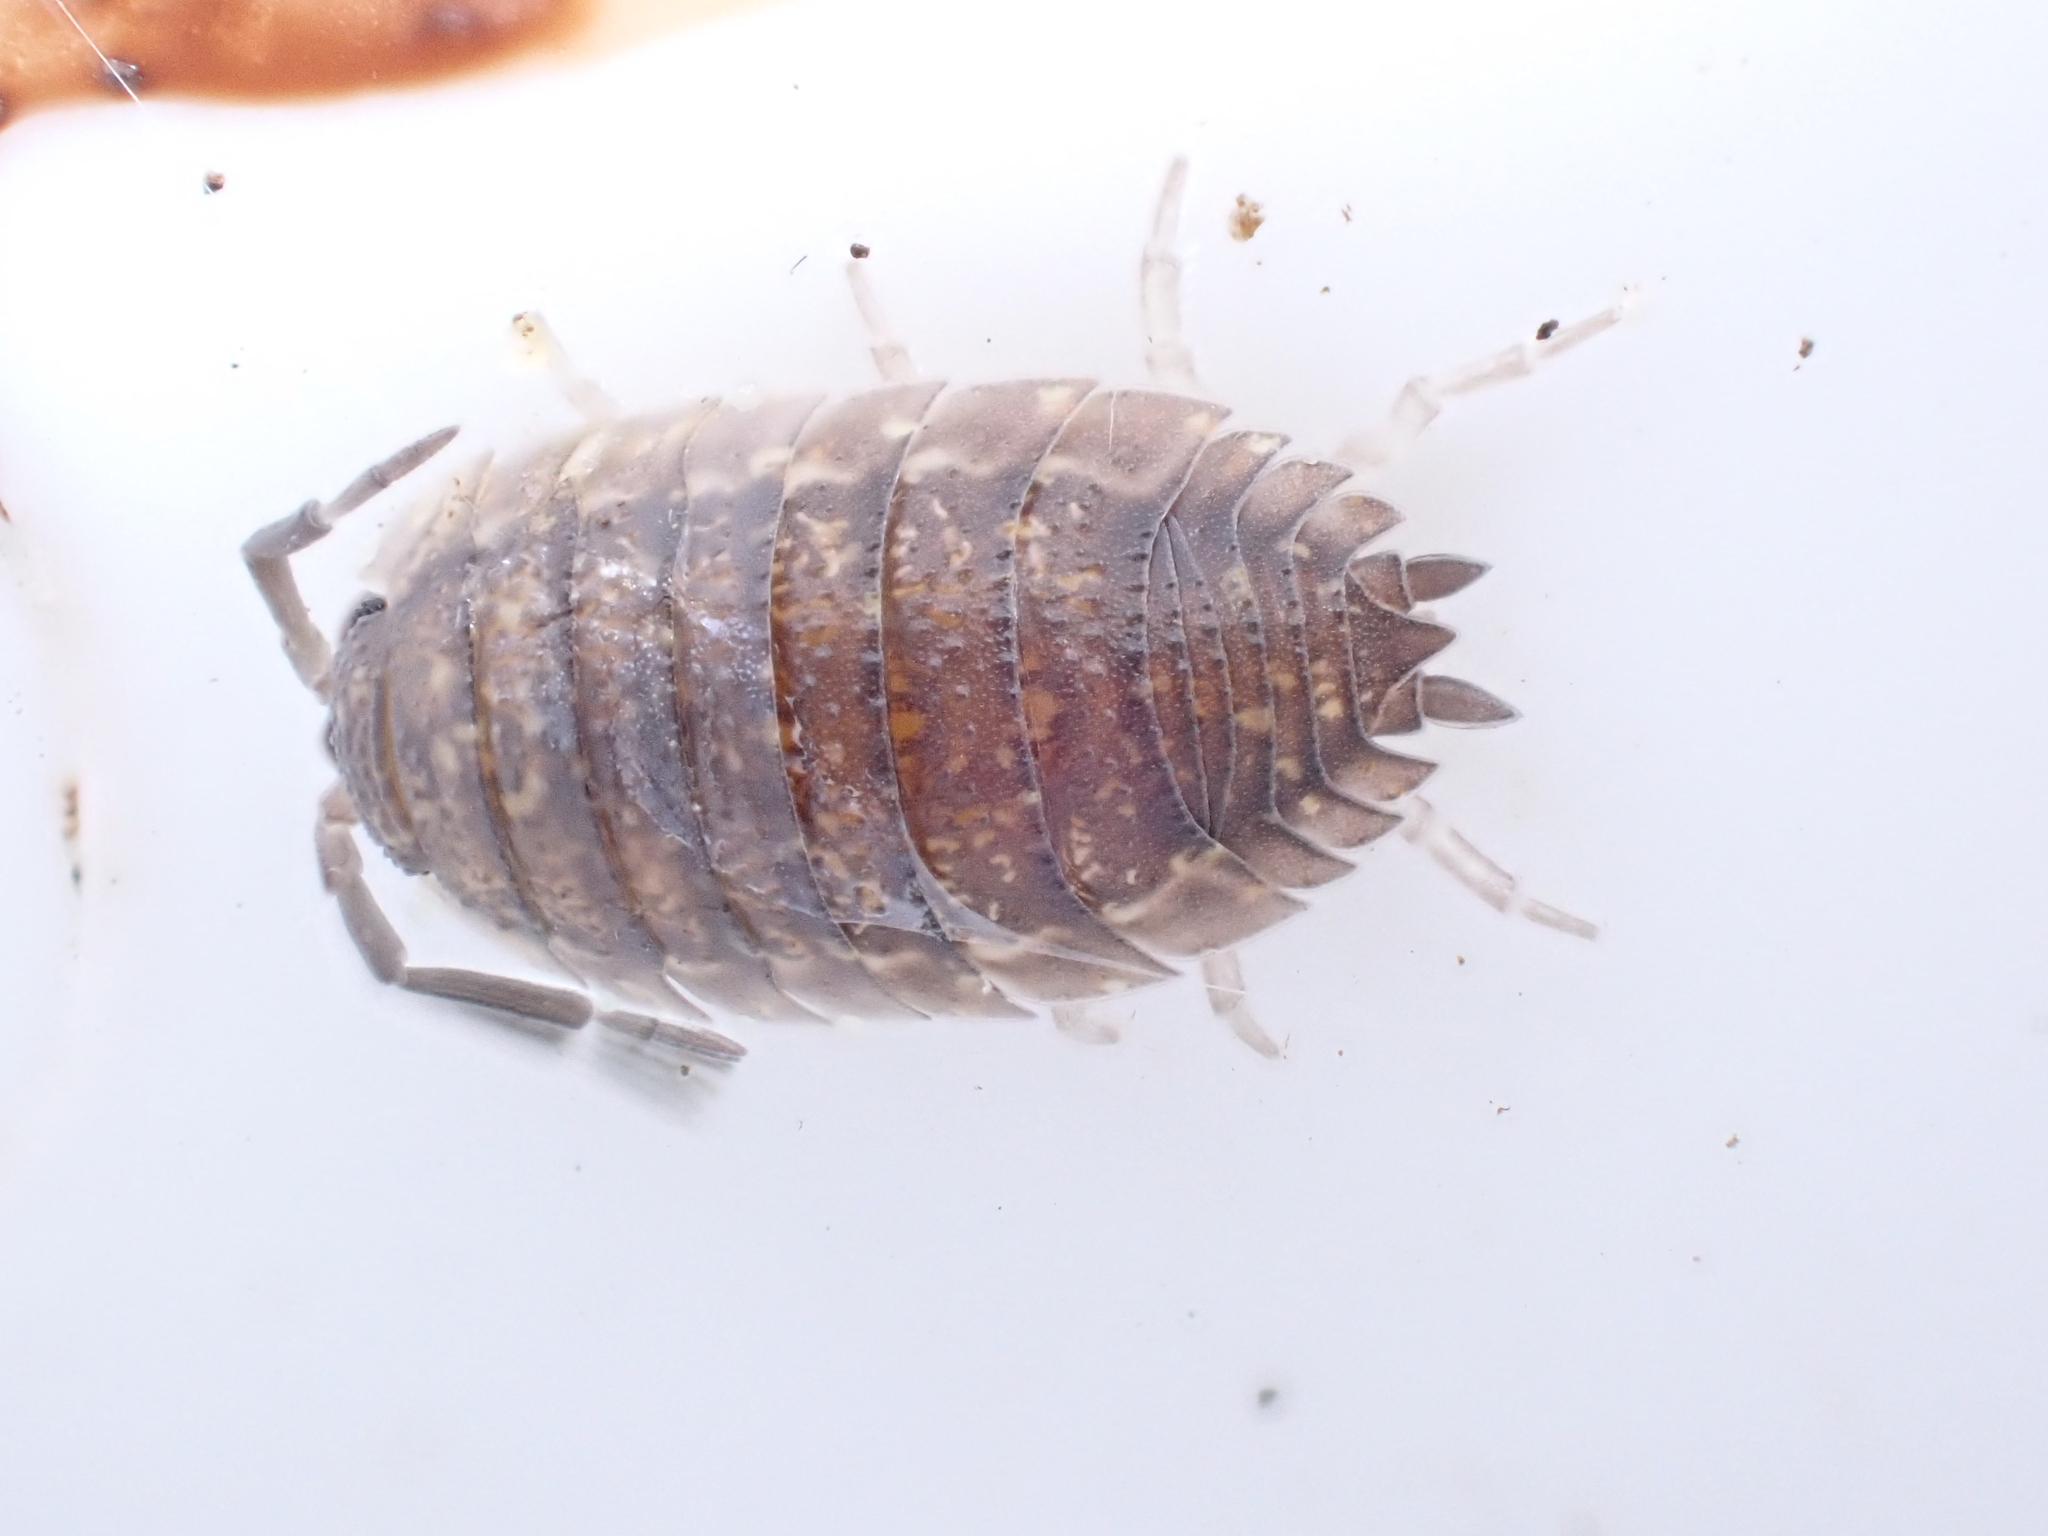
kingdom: Animalia
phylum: Arthropoda
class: Malacostraca
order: Isopoda
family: Porcellionidae
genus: Porcellio
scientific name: Porcellio scaber
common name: Common rough woodlouse
